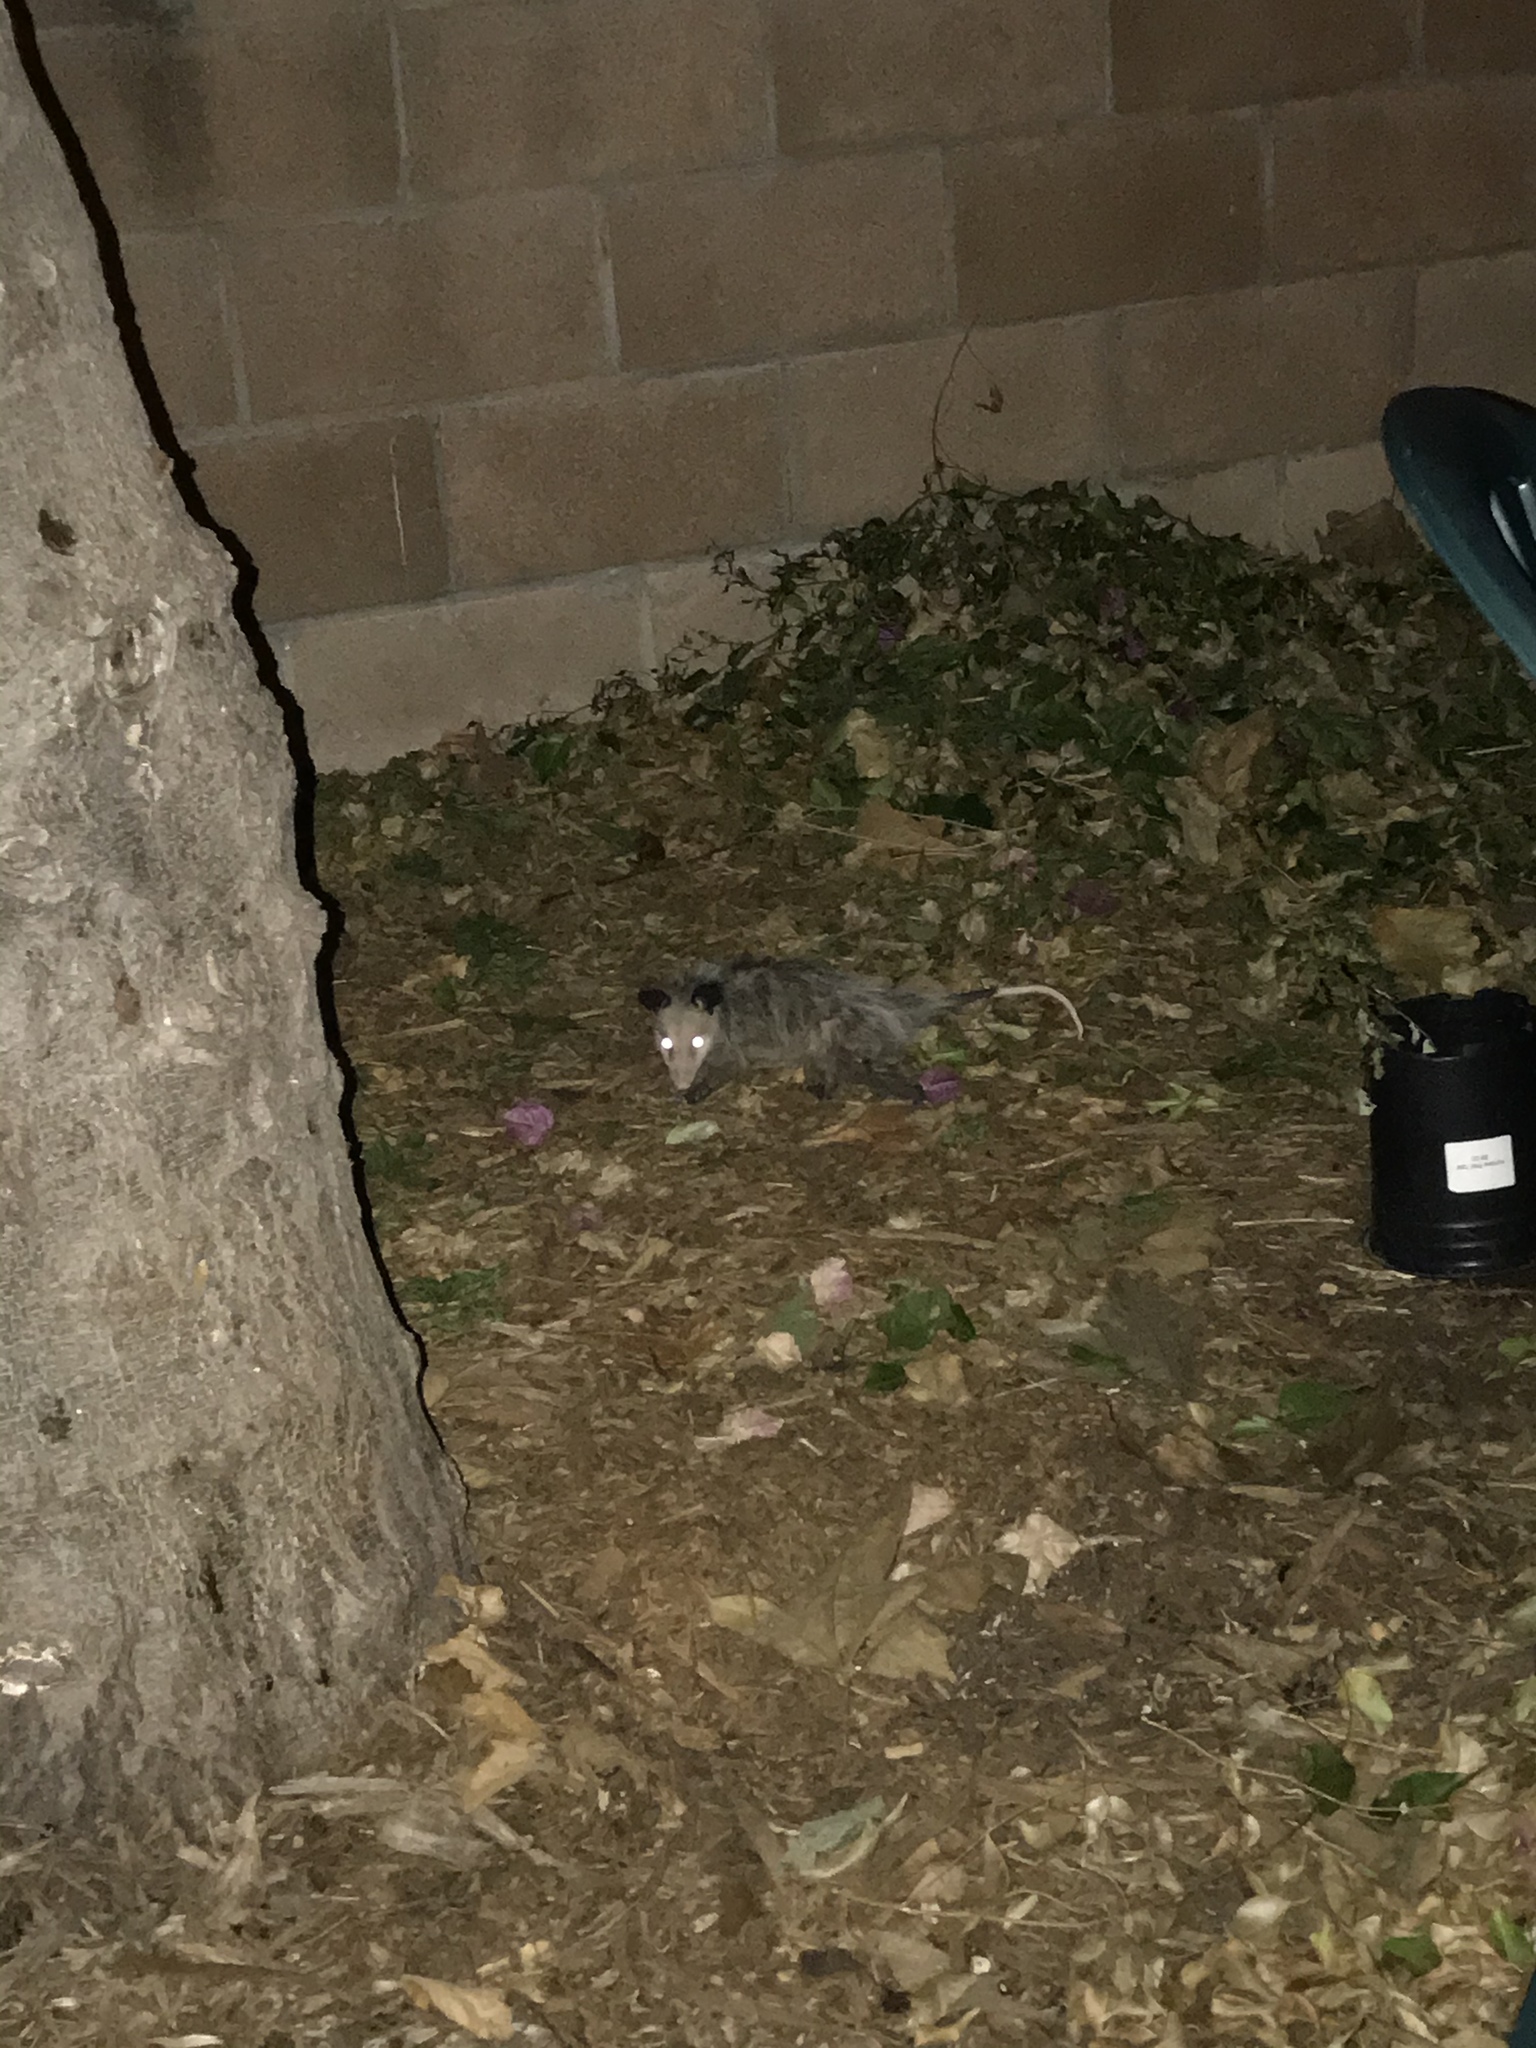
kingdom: Animalia
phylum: Chordata
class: Mammalia
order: Didelphimorphia
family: Didelphidae
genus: Didelphis
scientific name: Didelphis virginiana
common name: Virginia opossum
